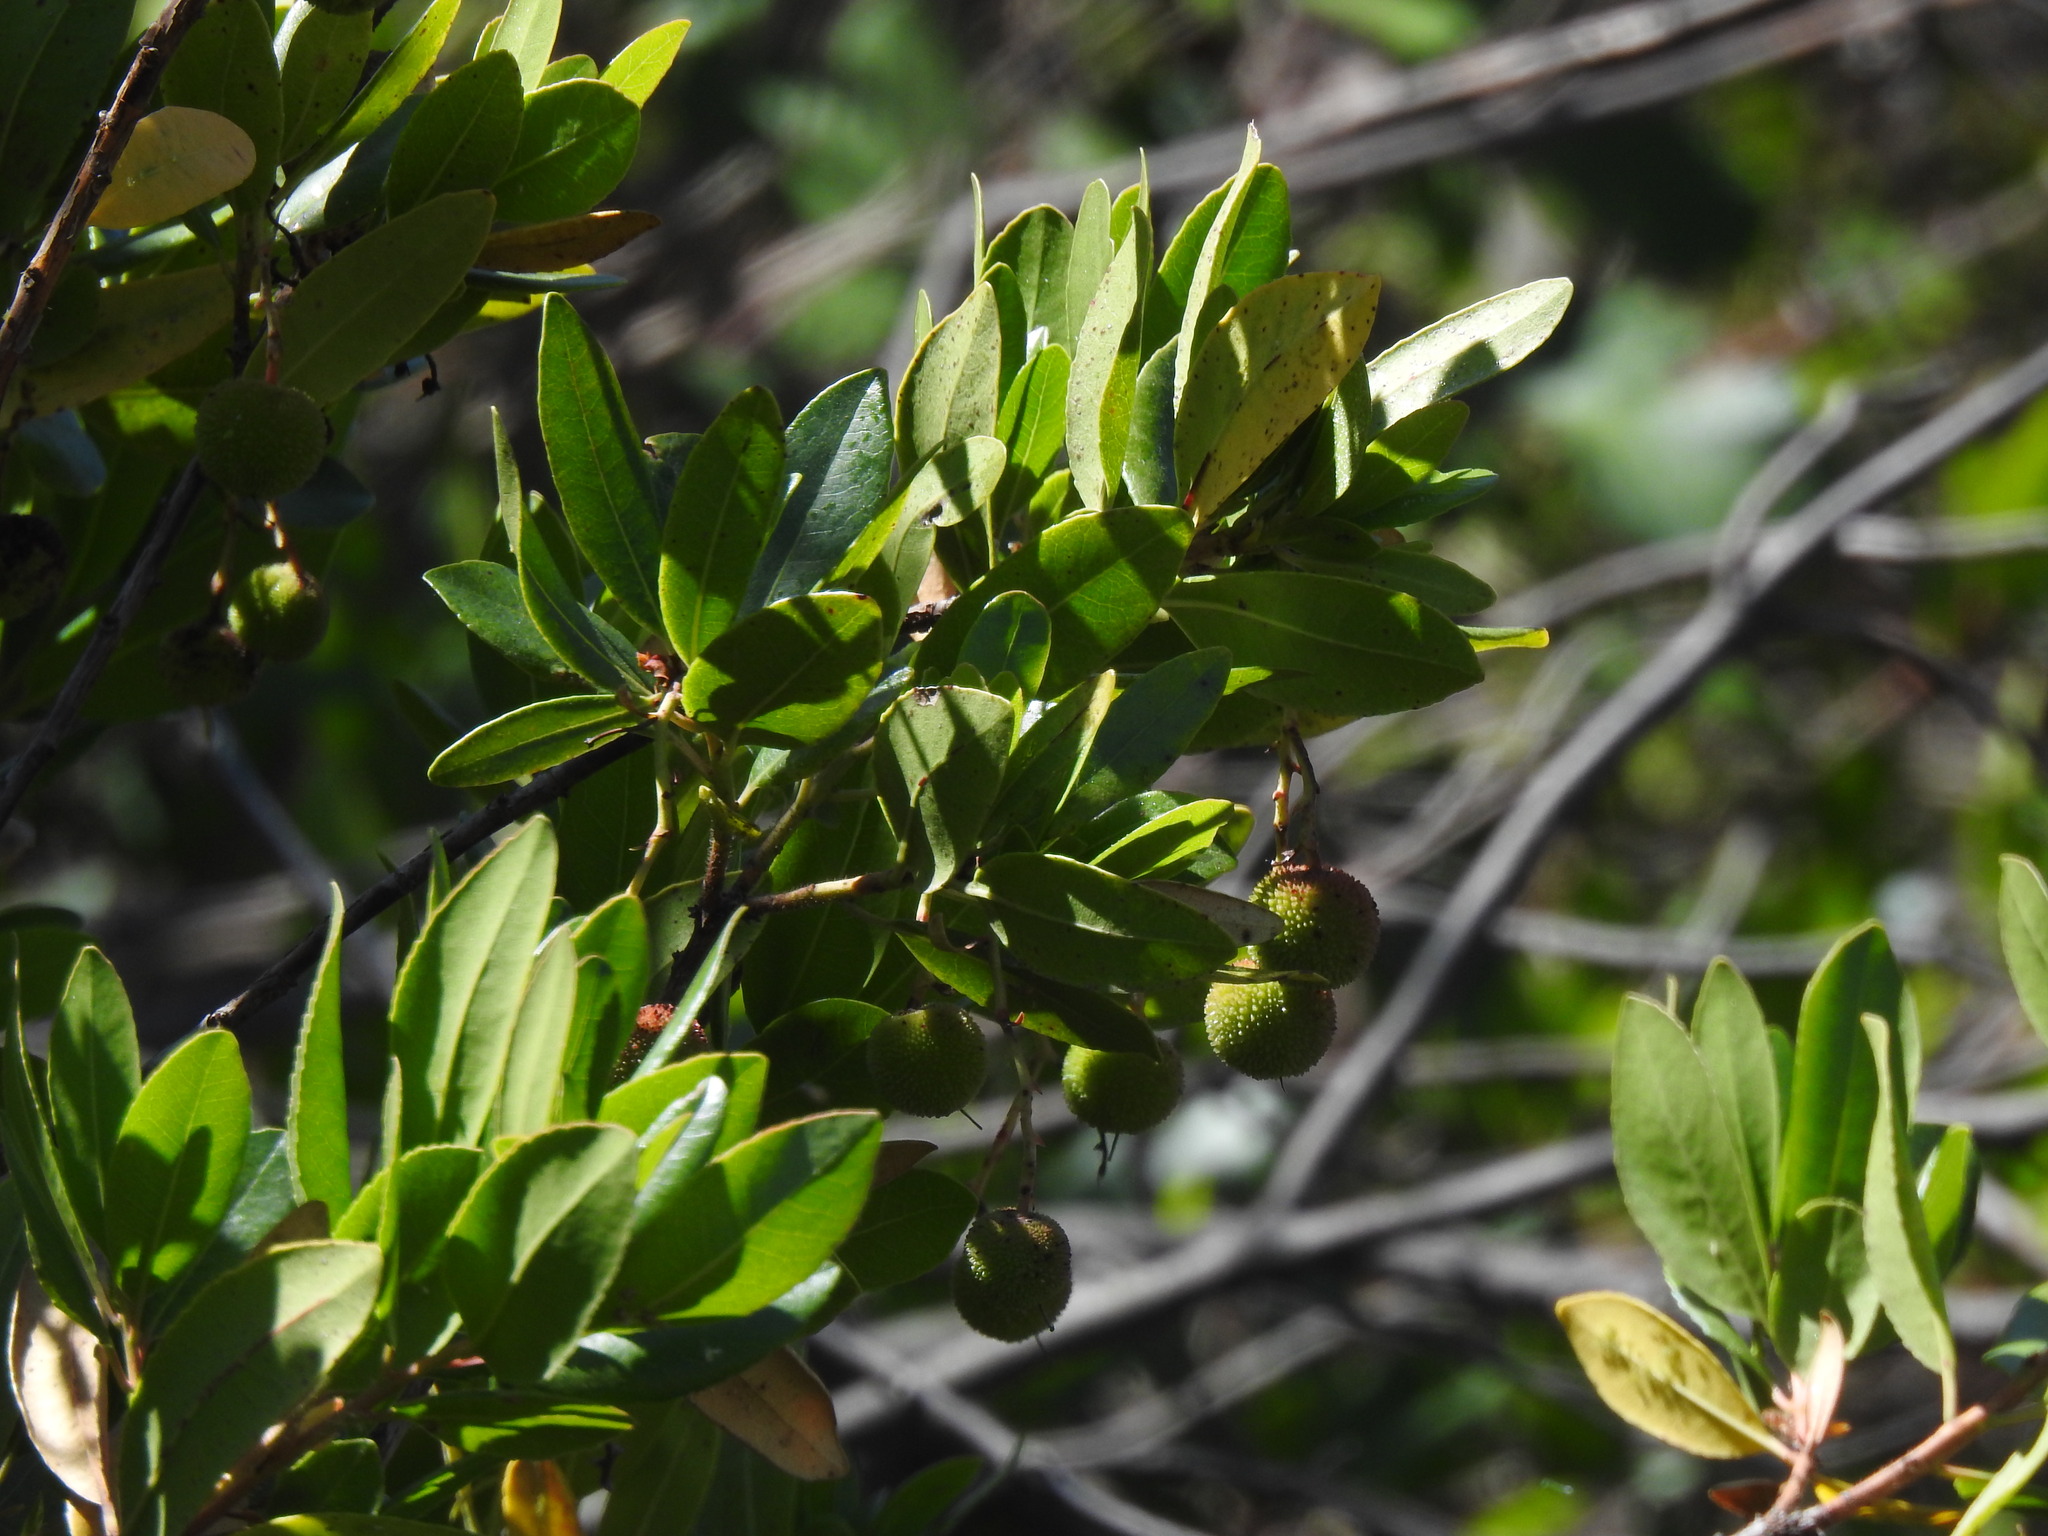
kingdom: Plantae
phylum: Tracheophyta
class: Magnoliopsida
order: Ericales
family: Ericaceae
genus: Arbutus
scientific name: Arbutus unedo
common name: Strawberry-tree
